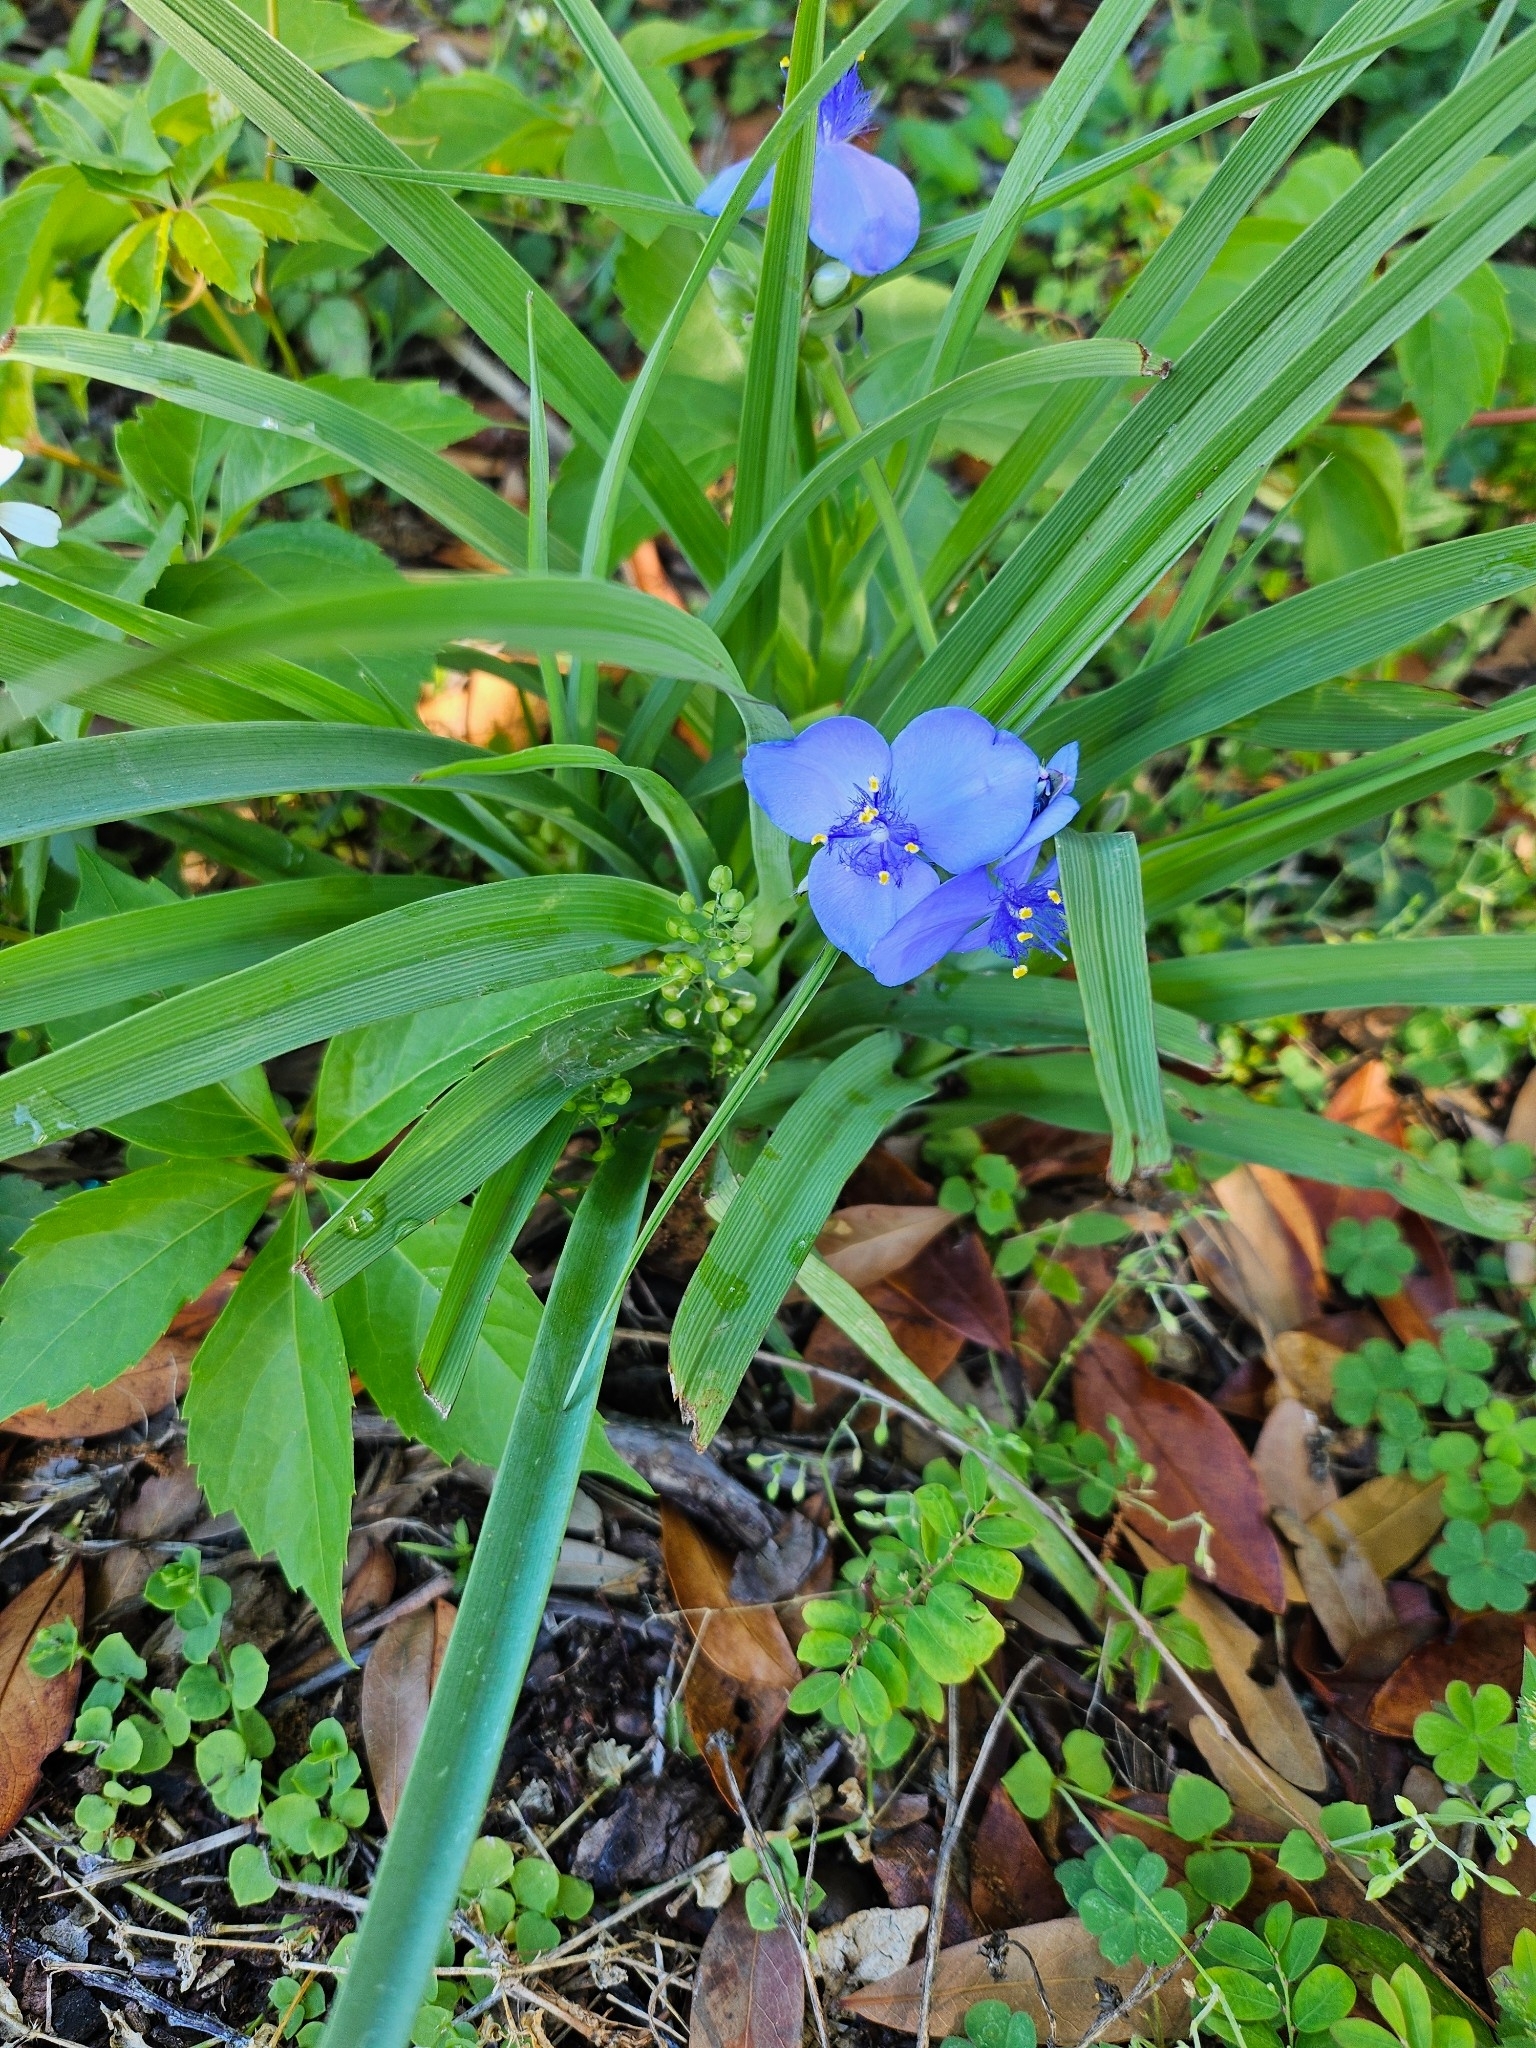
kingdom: Plantae
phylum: Tracheophyta
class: Liliopsida
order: Commelinales
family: Commelinaceae
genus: Tradescantia
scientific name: Tradescantia ohiensis
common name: Ohio spiderwort
